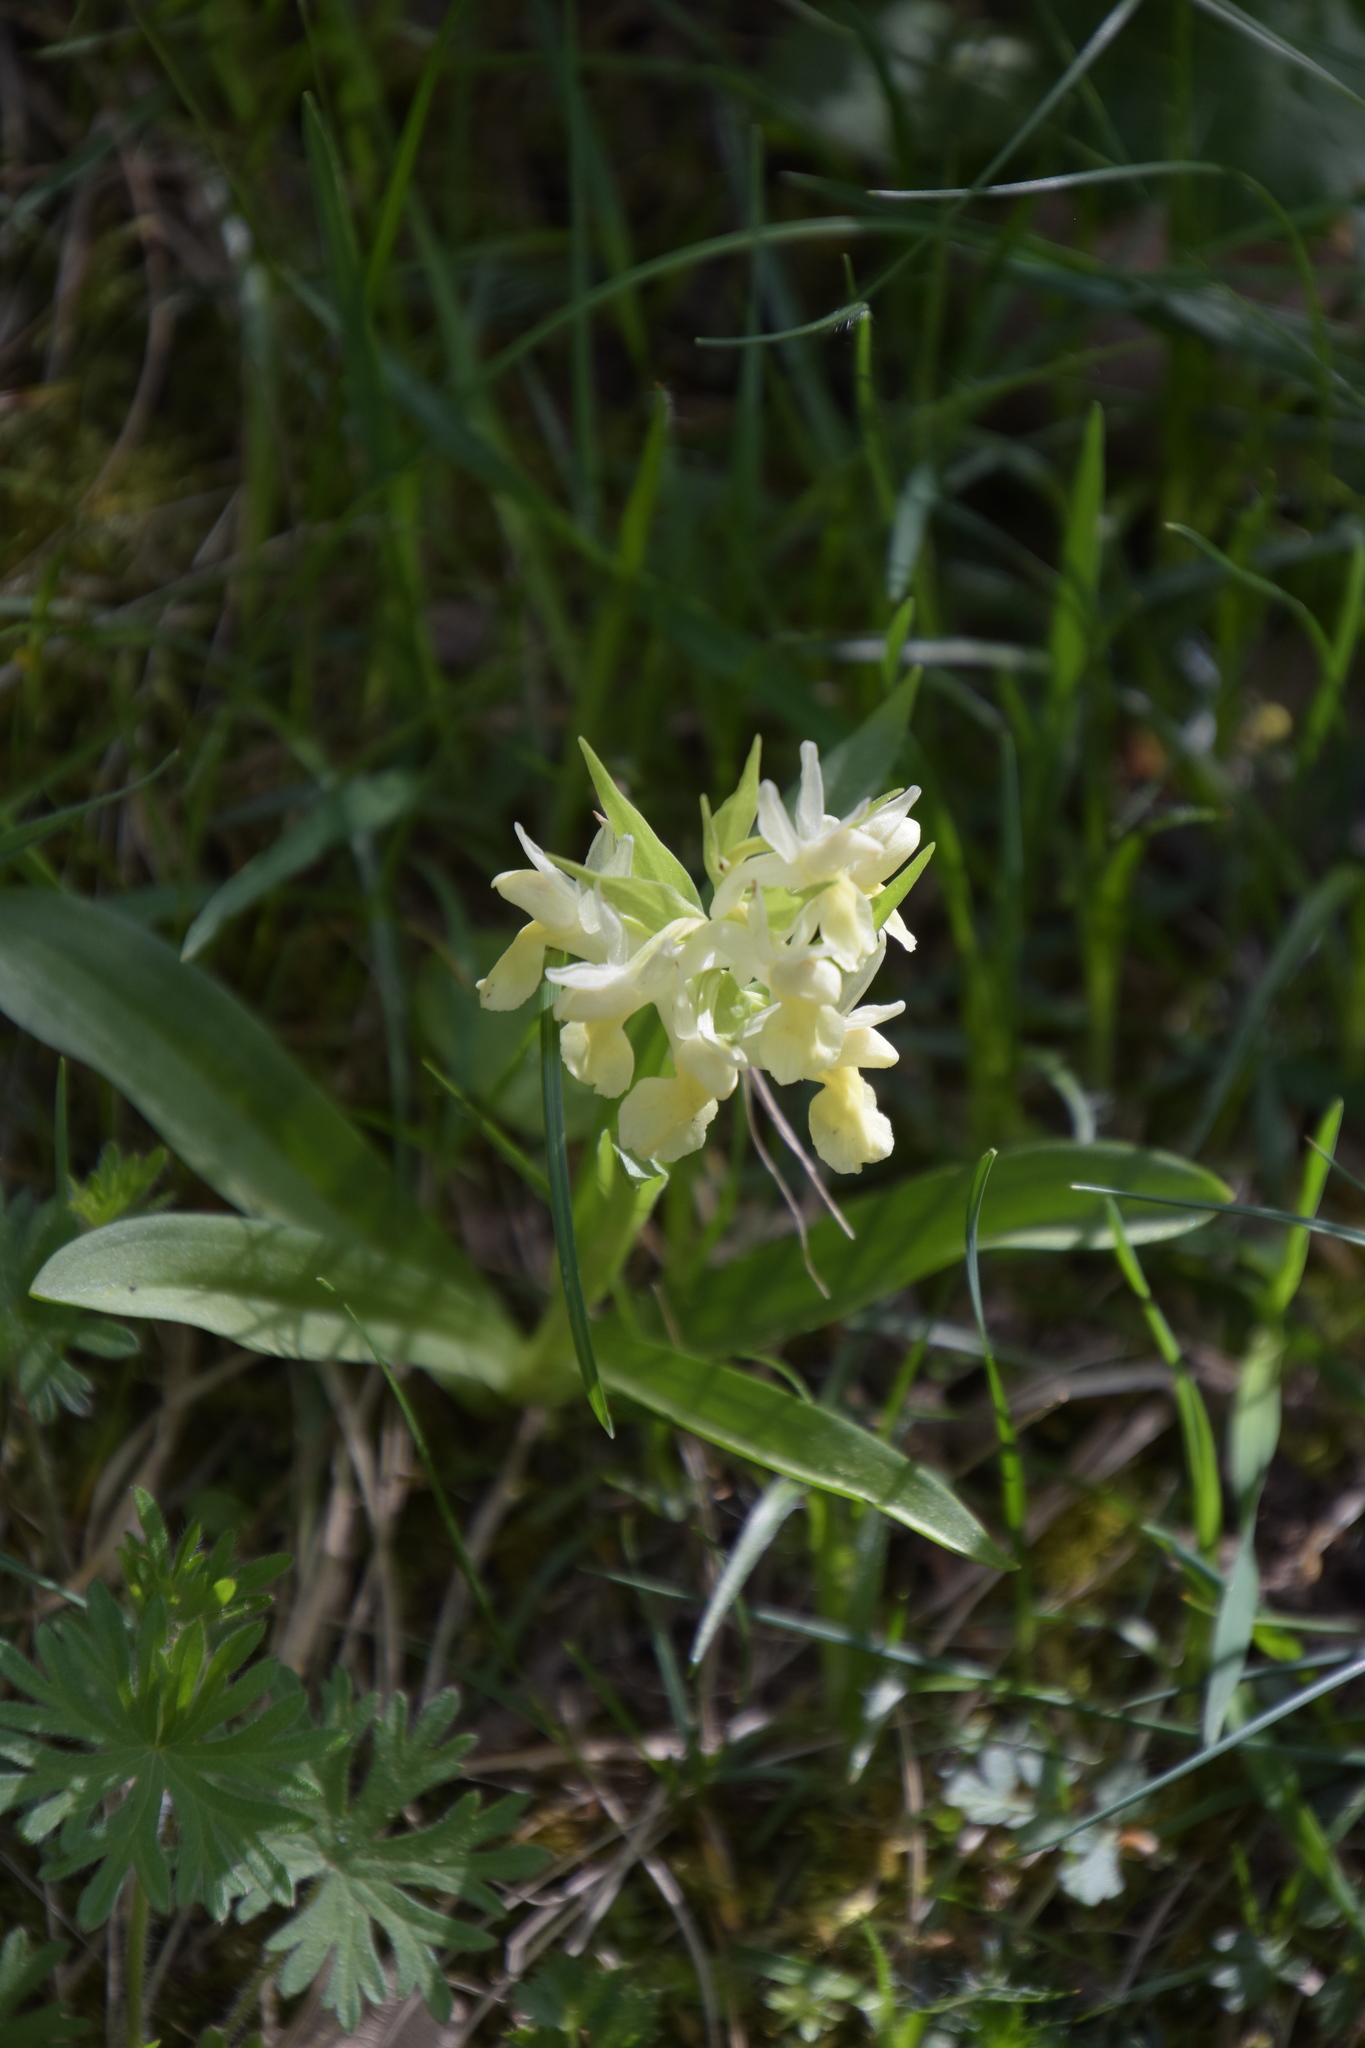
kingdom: Plantae
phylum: Tracheophyta
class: Liliopsida
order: Asparagales
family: Orchidaceae
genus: Dactylorhiza
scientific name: Dactylorhiza sambucina
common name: Elder-flowered orchid
